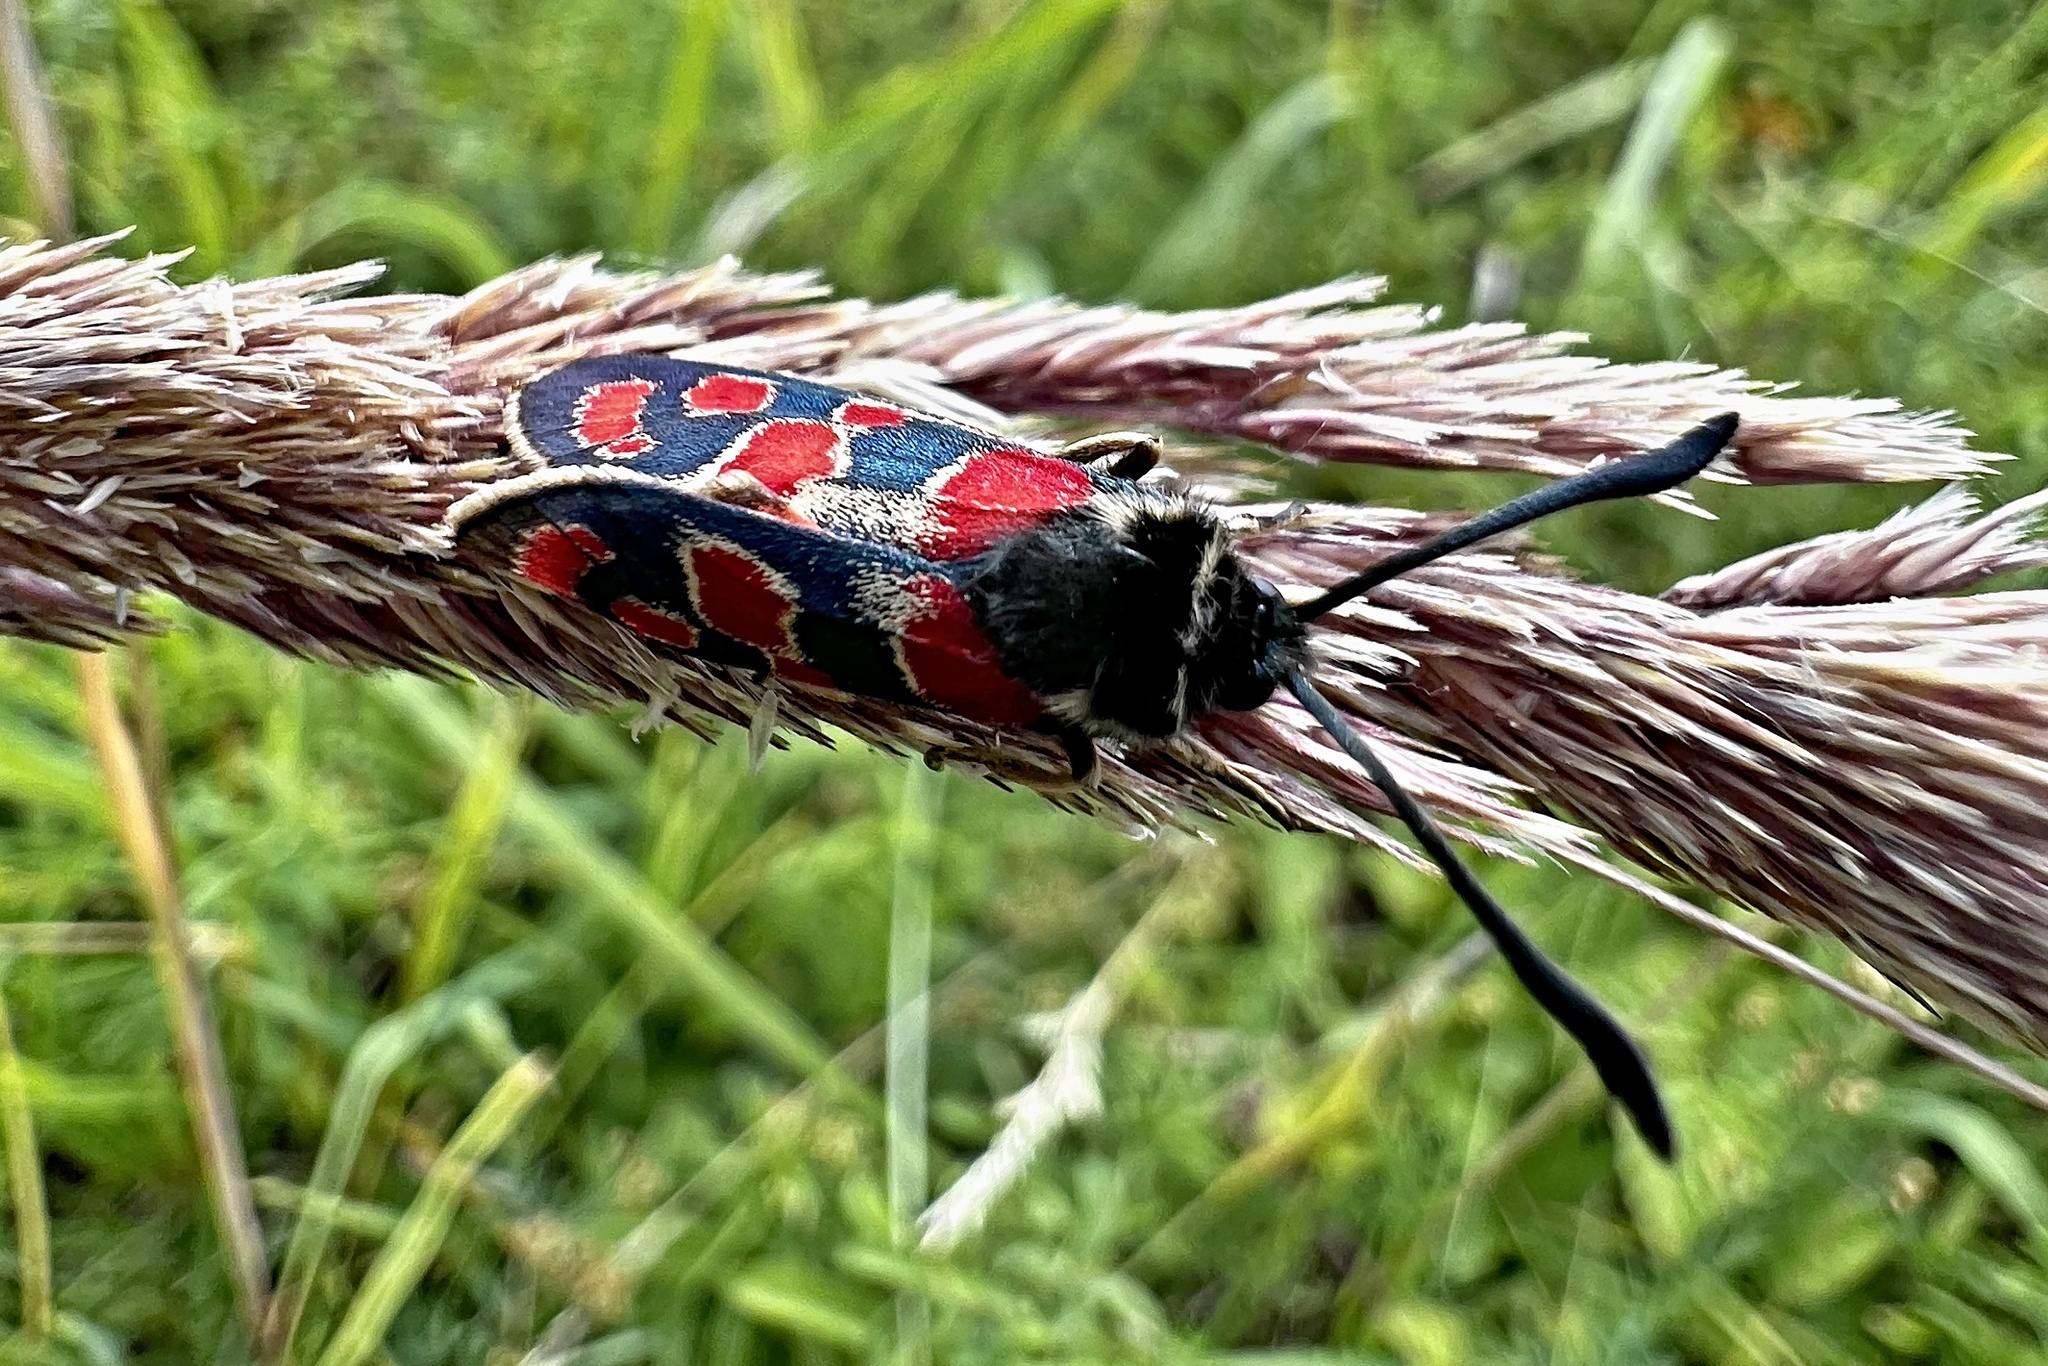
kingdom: Animalia
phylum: Arthropoda
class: Insecta
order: Lepidoptera
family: Zygaenidae
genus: Zygaena
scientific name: Zygaena carniolica
